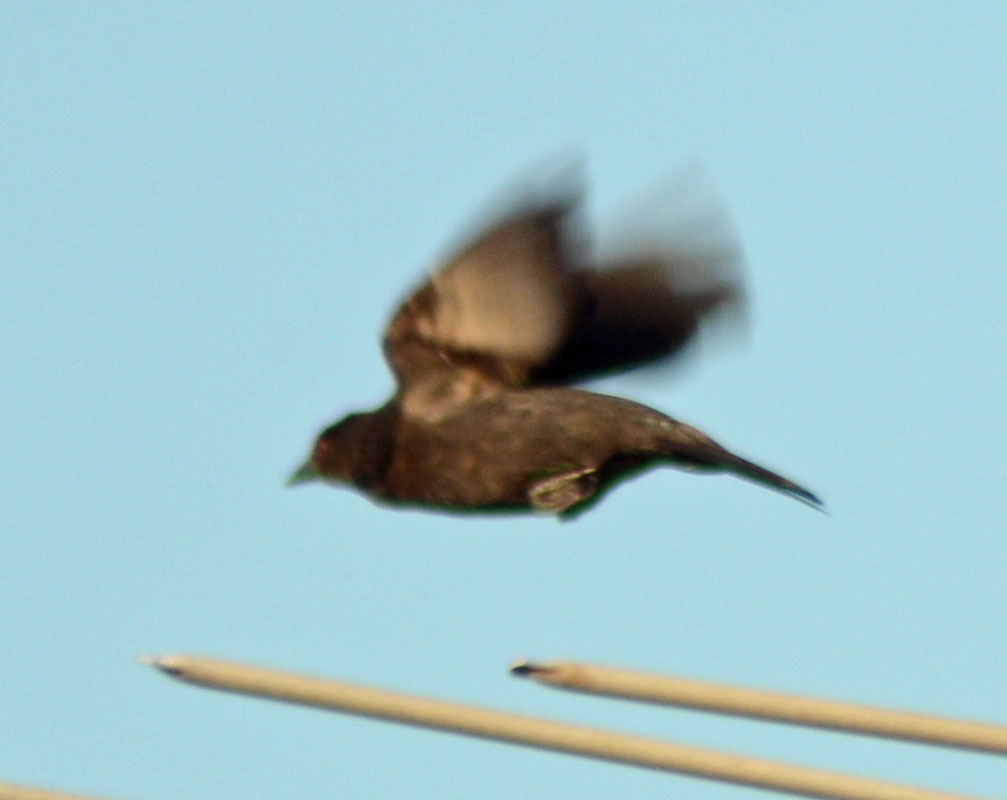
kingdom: Animalia
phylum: Chordata
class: Aves
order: Passeriformes
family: Icteridae
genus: Molothrus
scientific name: Molothrus aeneus
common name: Bronzed cowbird
